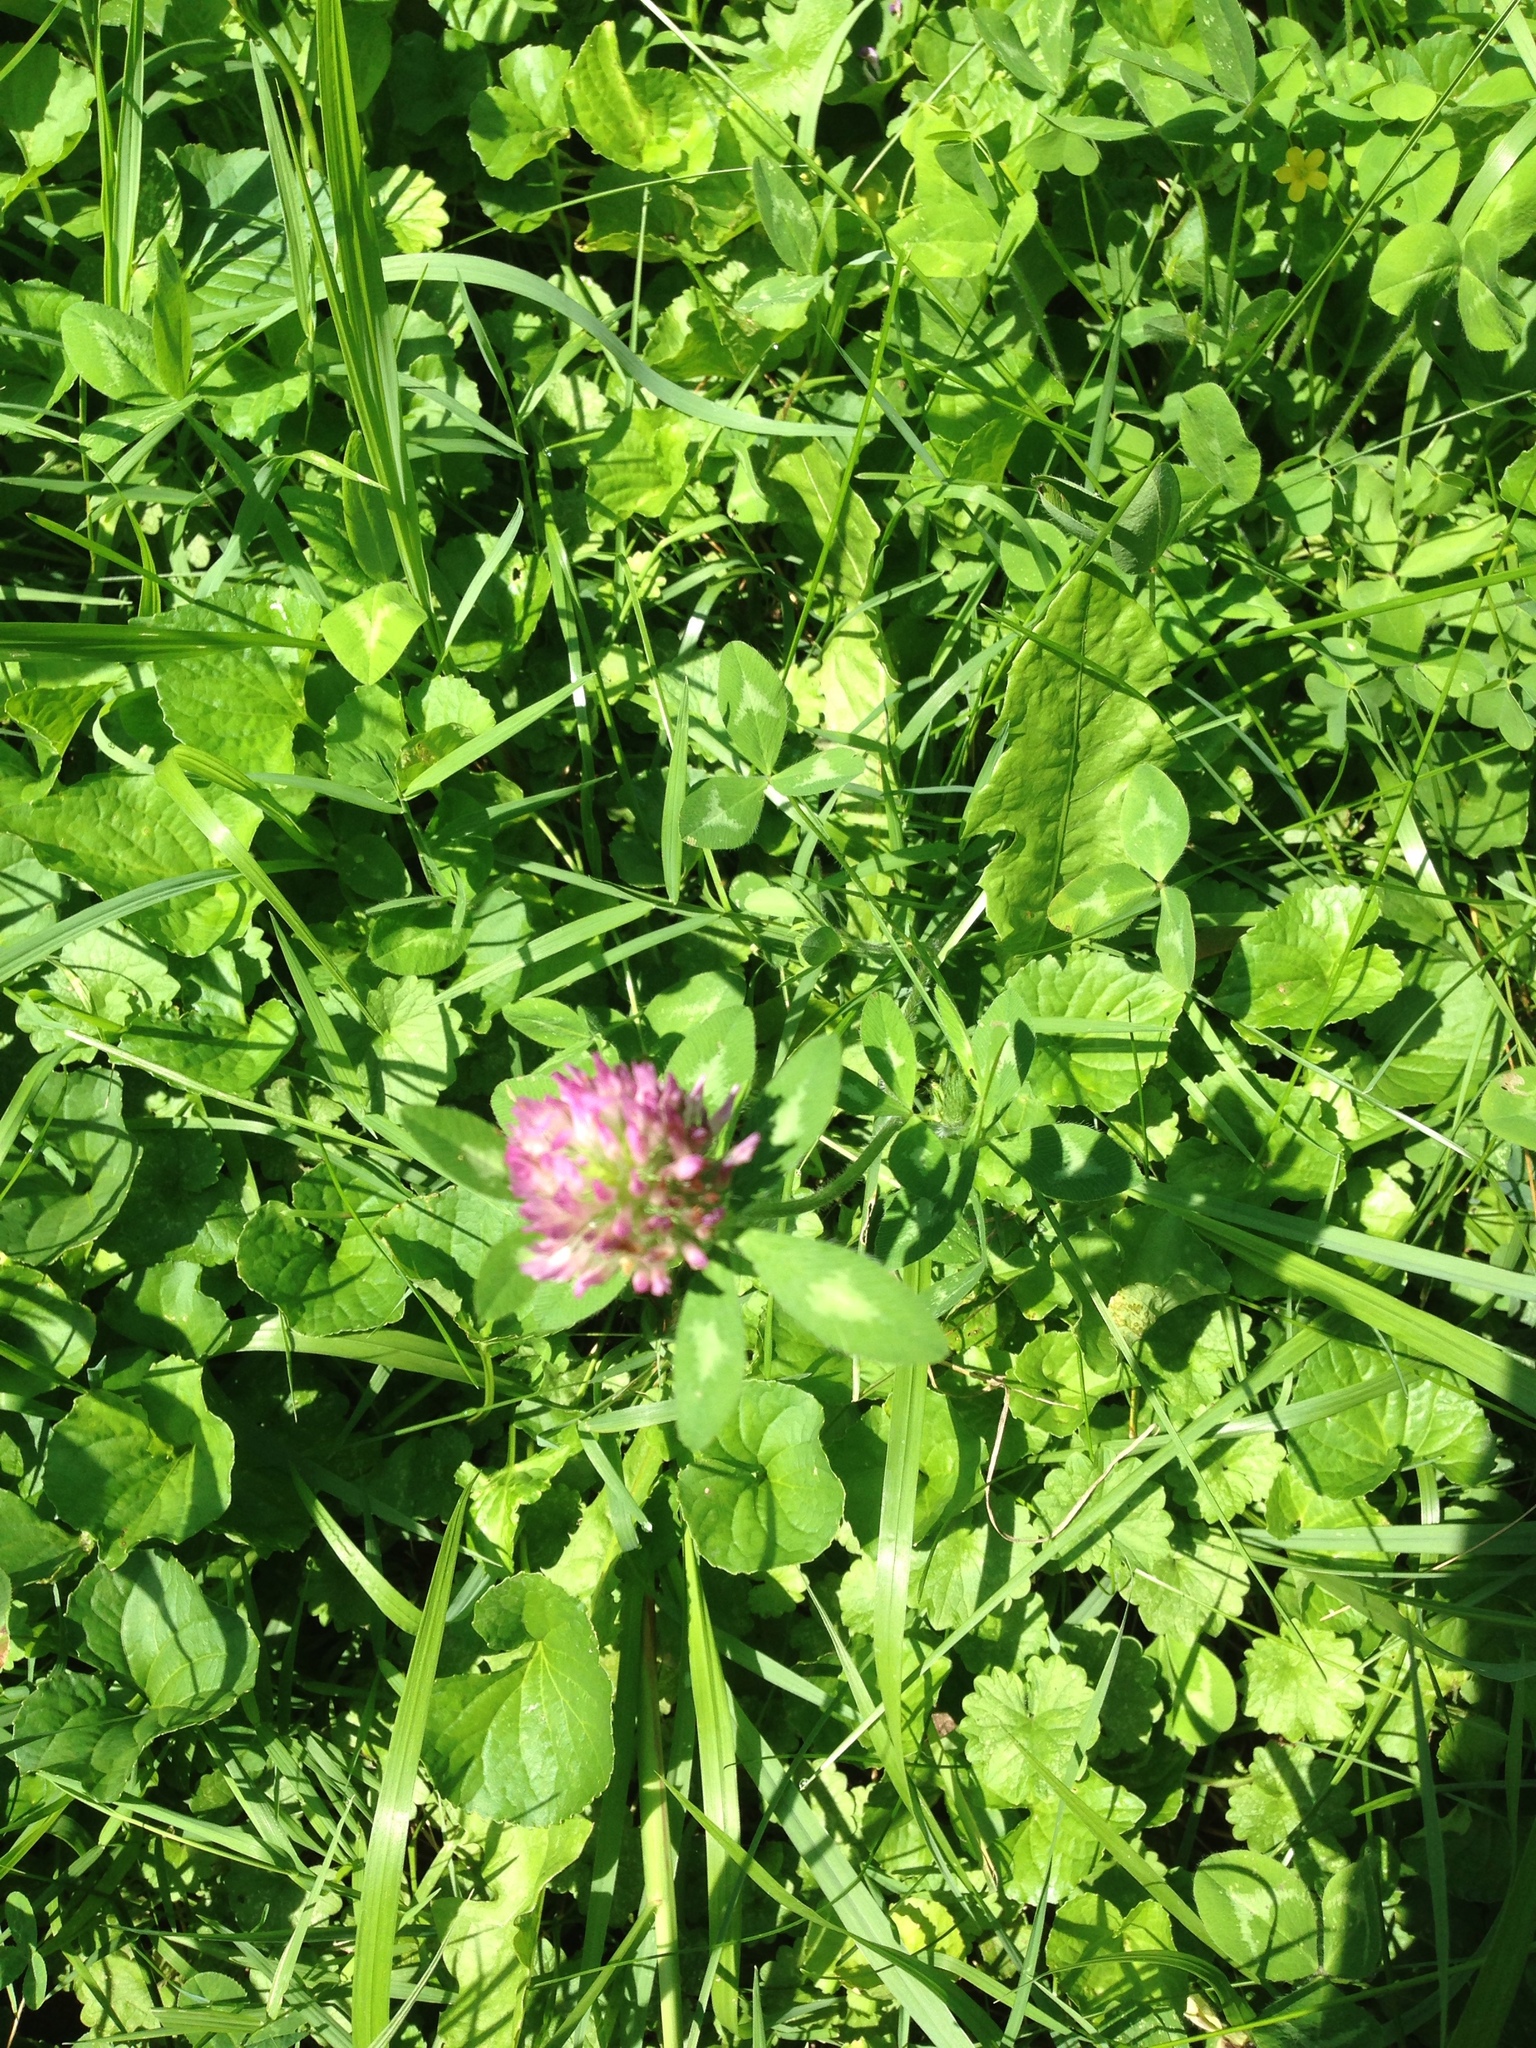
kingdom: Plantae
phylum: Tracheophyta
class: Magnoliopsida
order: Fabales
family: Fabaceae
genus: Trifolium
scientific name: Trifolium pratense
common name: Red clover
